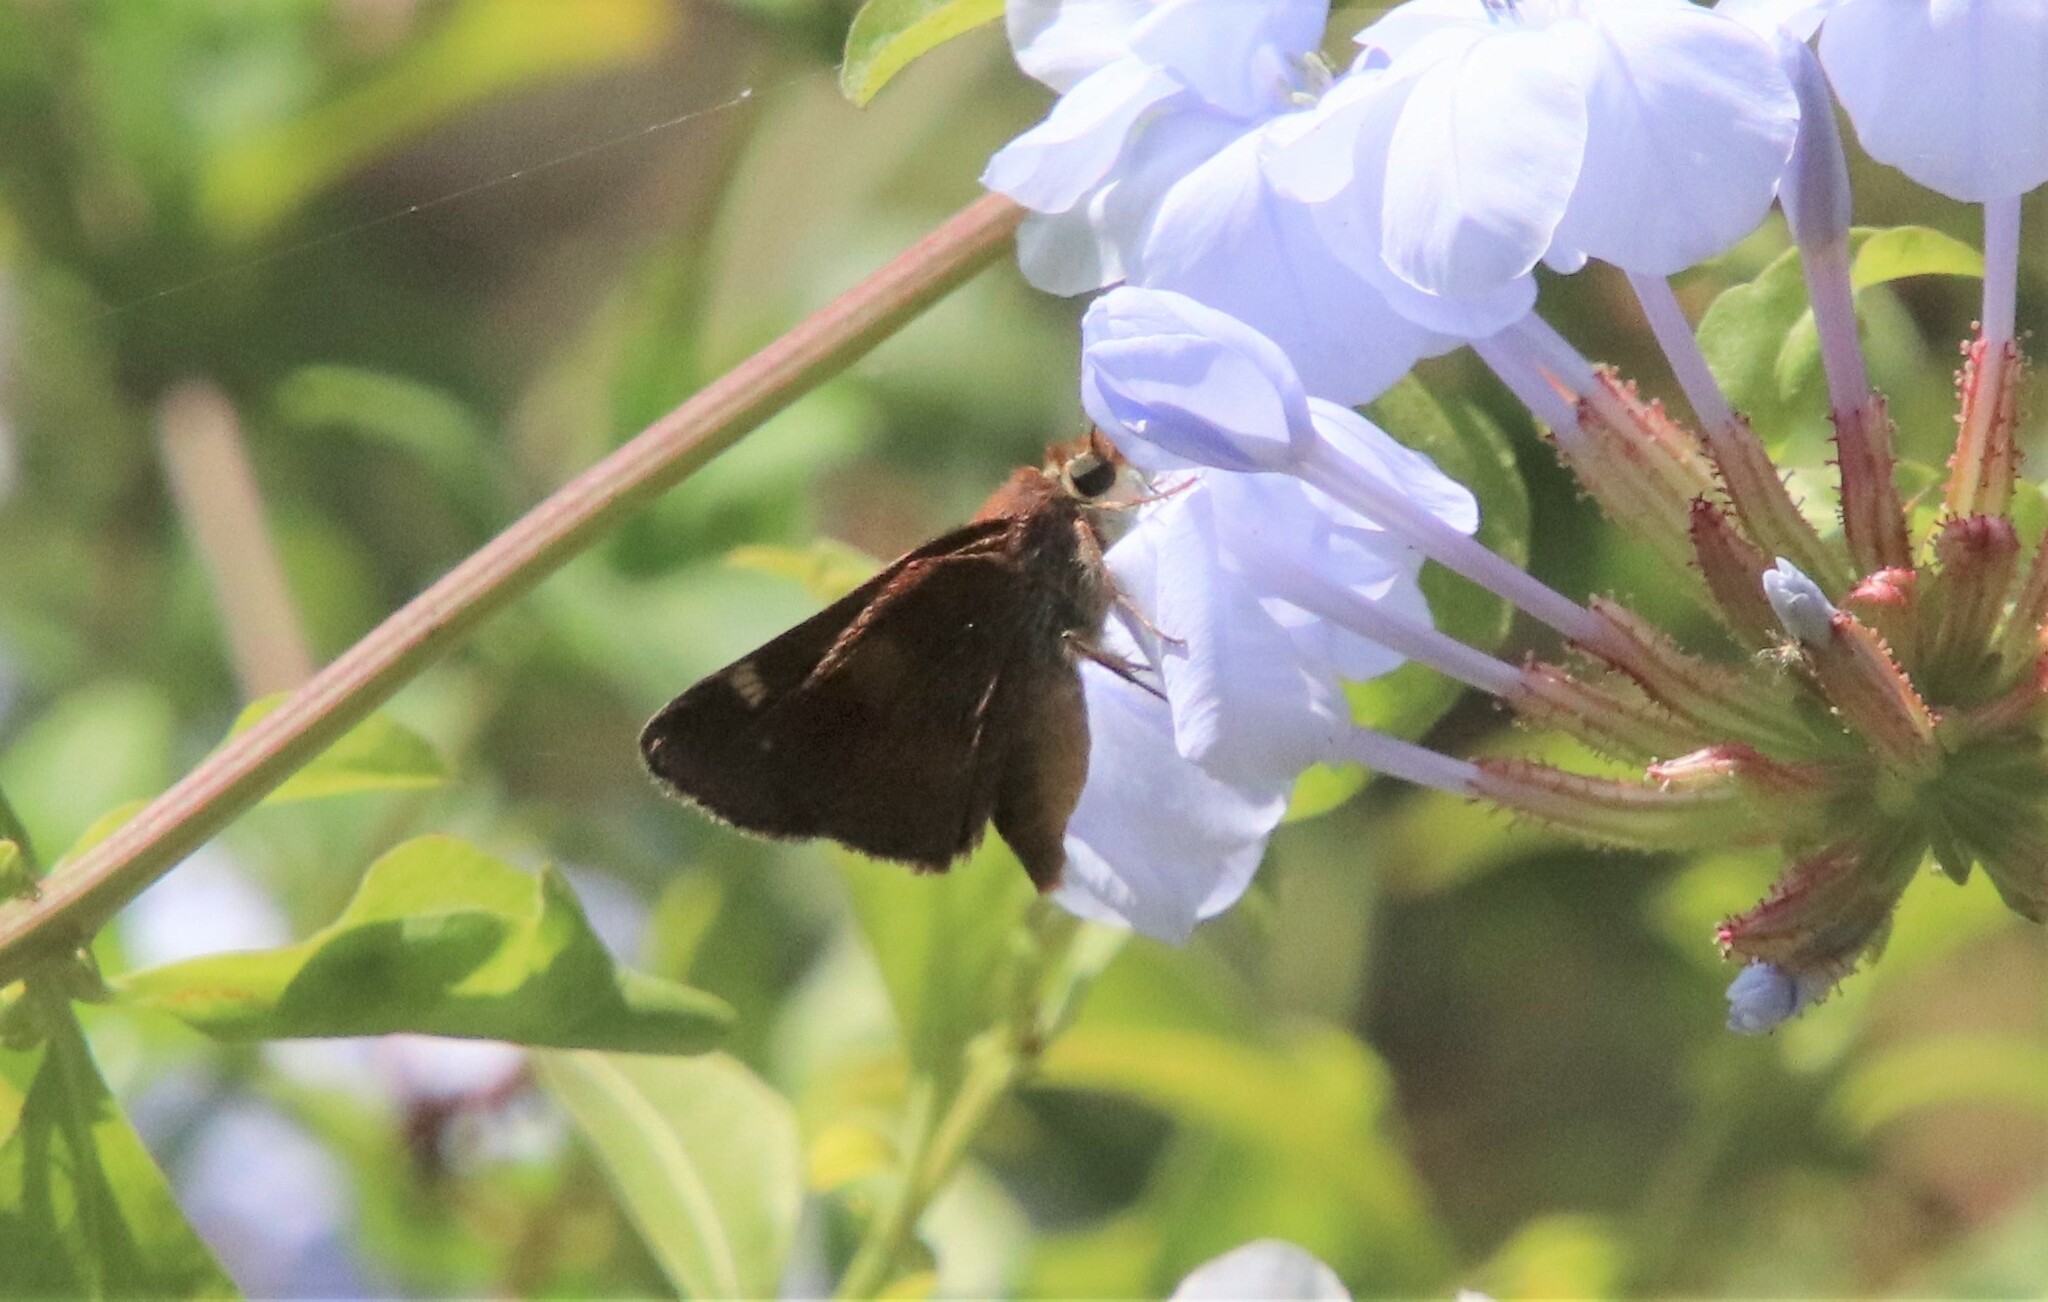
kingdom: Animalia
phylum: Arthropoda
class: Insecta
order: Lepidoptera
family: Hesperiidae
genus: Lon
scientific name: Lon melane
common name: Umber skipper
